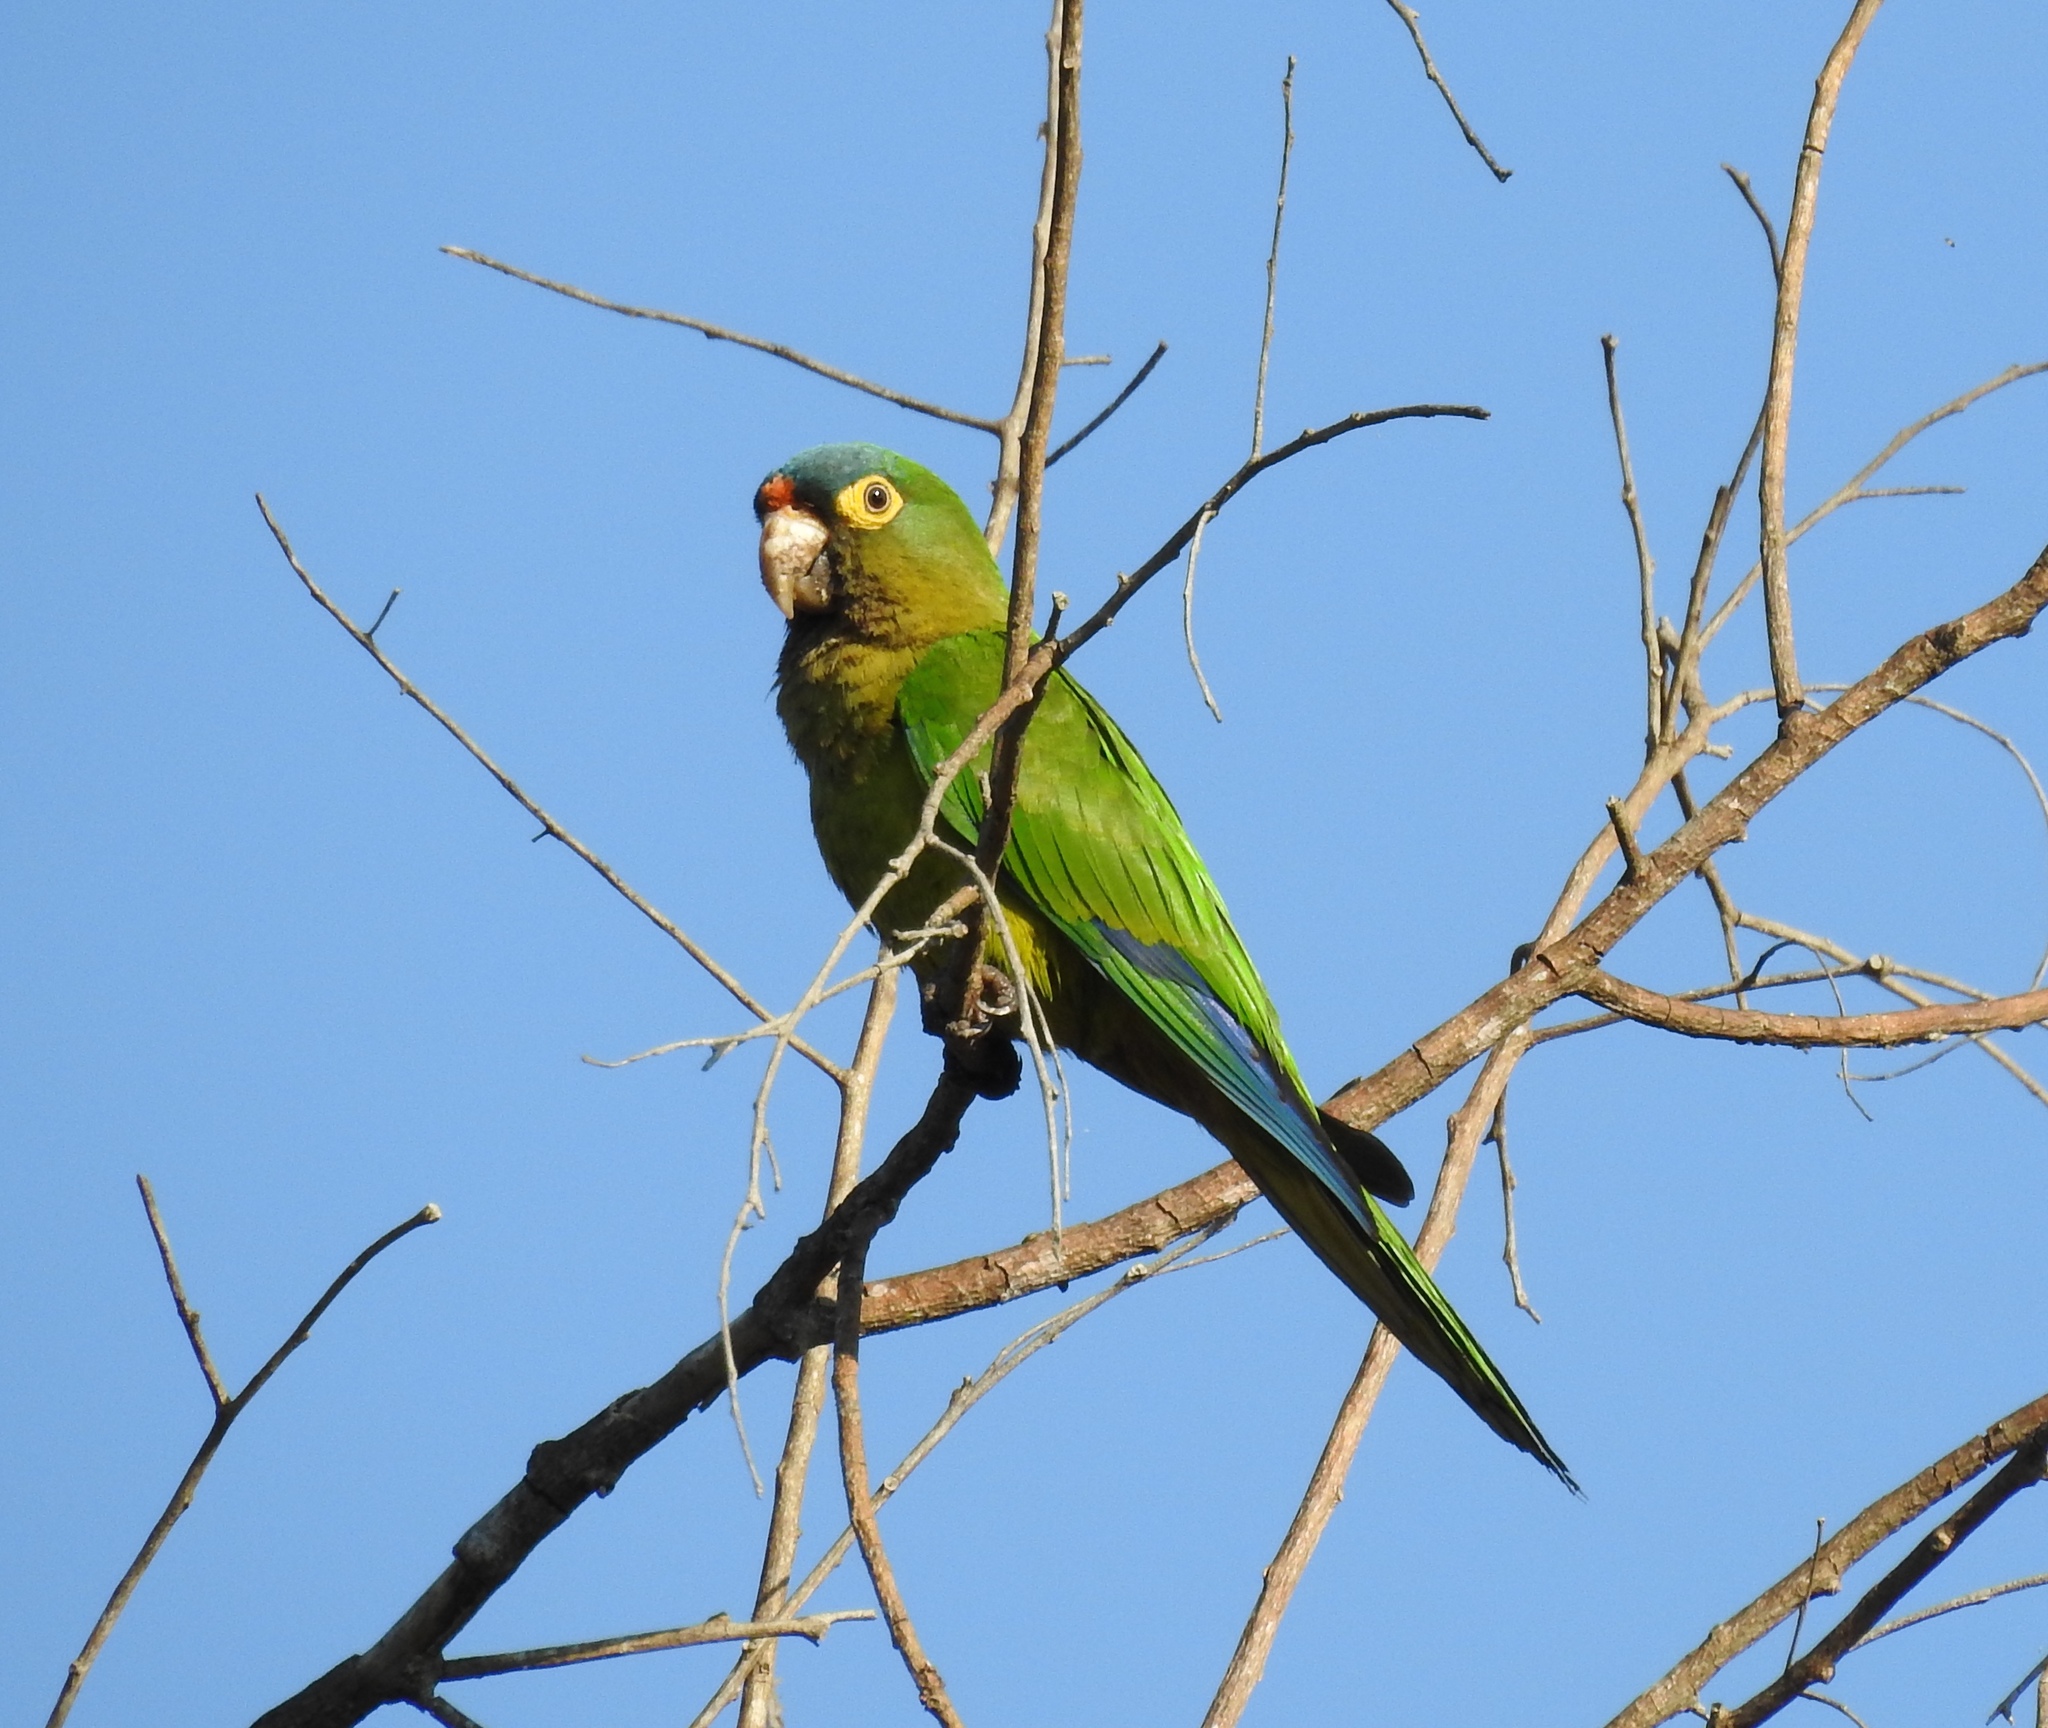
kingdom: Animalia
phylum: Chordata
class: Aves
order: Psittaciformes
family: Psittacidae
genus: Aratinga
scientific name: Aratinga canicularis
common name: Orange-fronted parakeet
